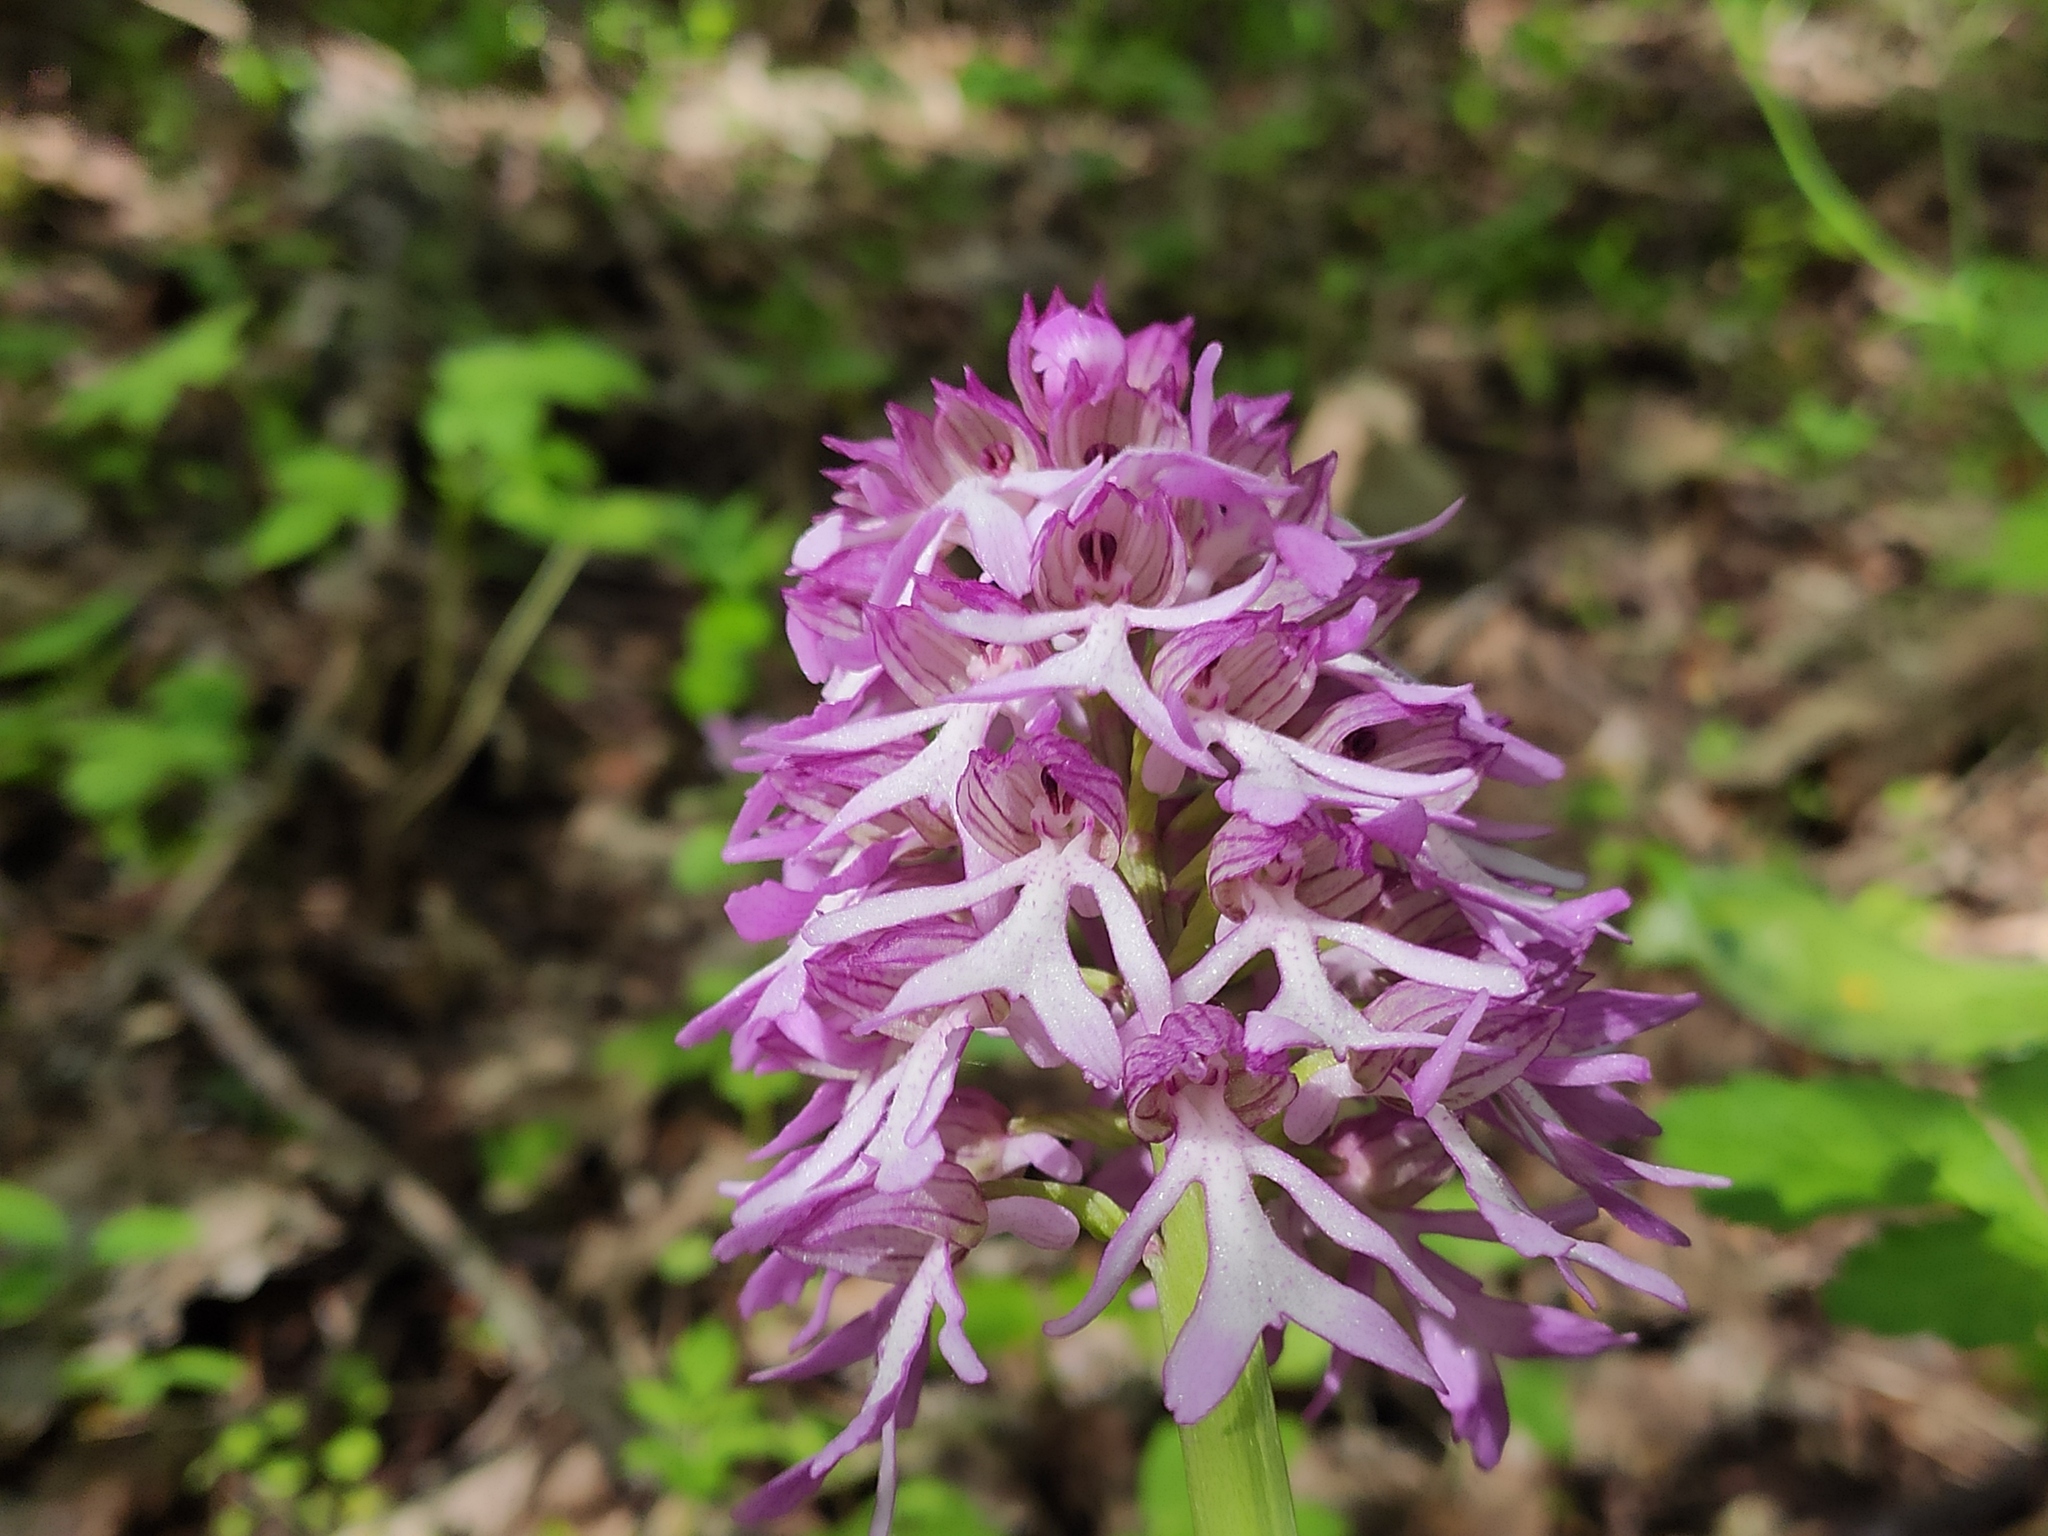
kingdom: Plantae
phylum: Tracheophyta
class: Liliopsida
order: Asparagales
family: Orchidaceae
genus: Orchis
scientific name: Orchis purpurea
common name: Lady orchid
